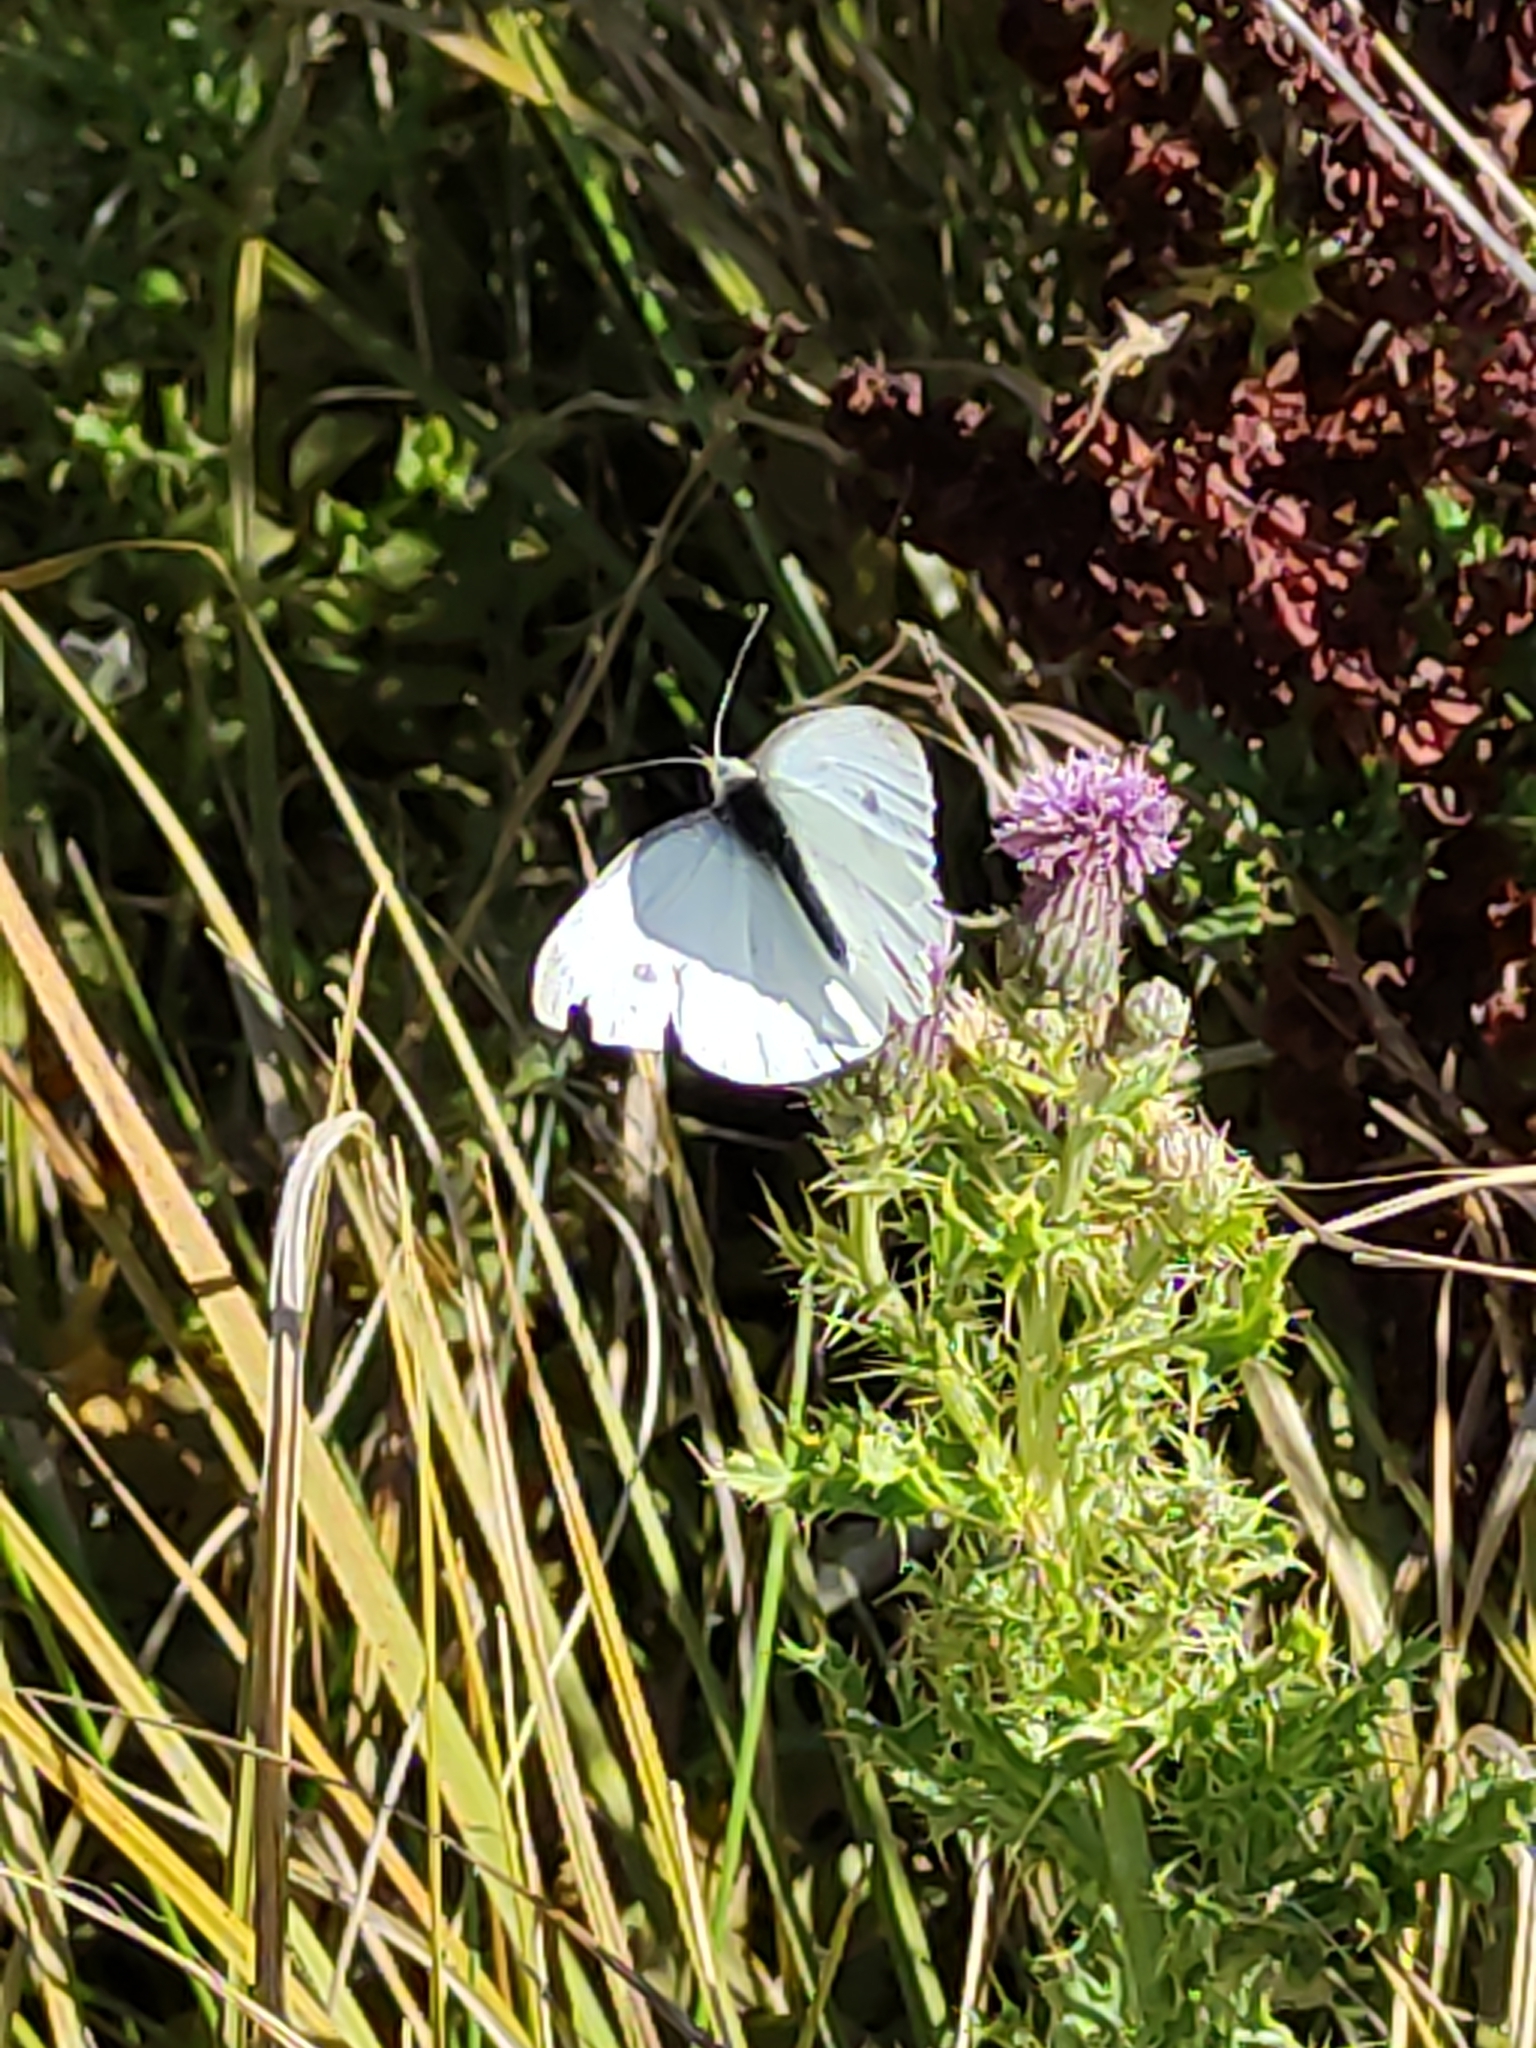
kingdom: Animalia
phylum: Arthropoda
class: Insecta
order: Lepidoptera
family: Pieridae
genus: Pieris
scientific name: Pieris rapae
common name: Small white
